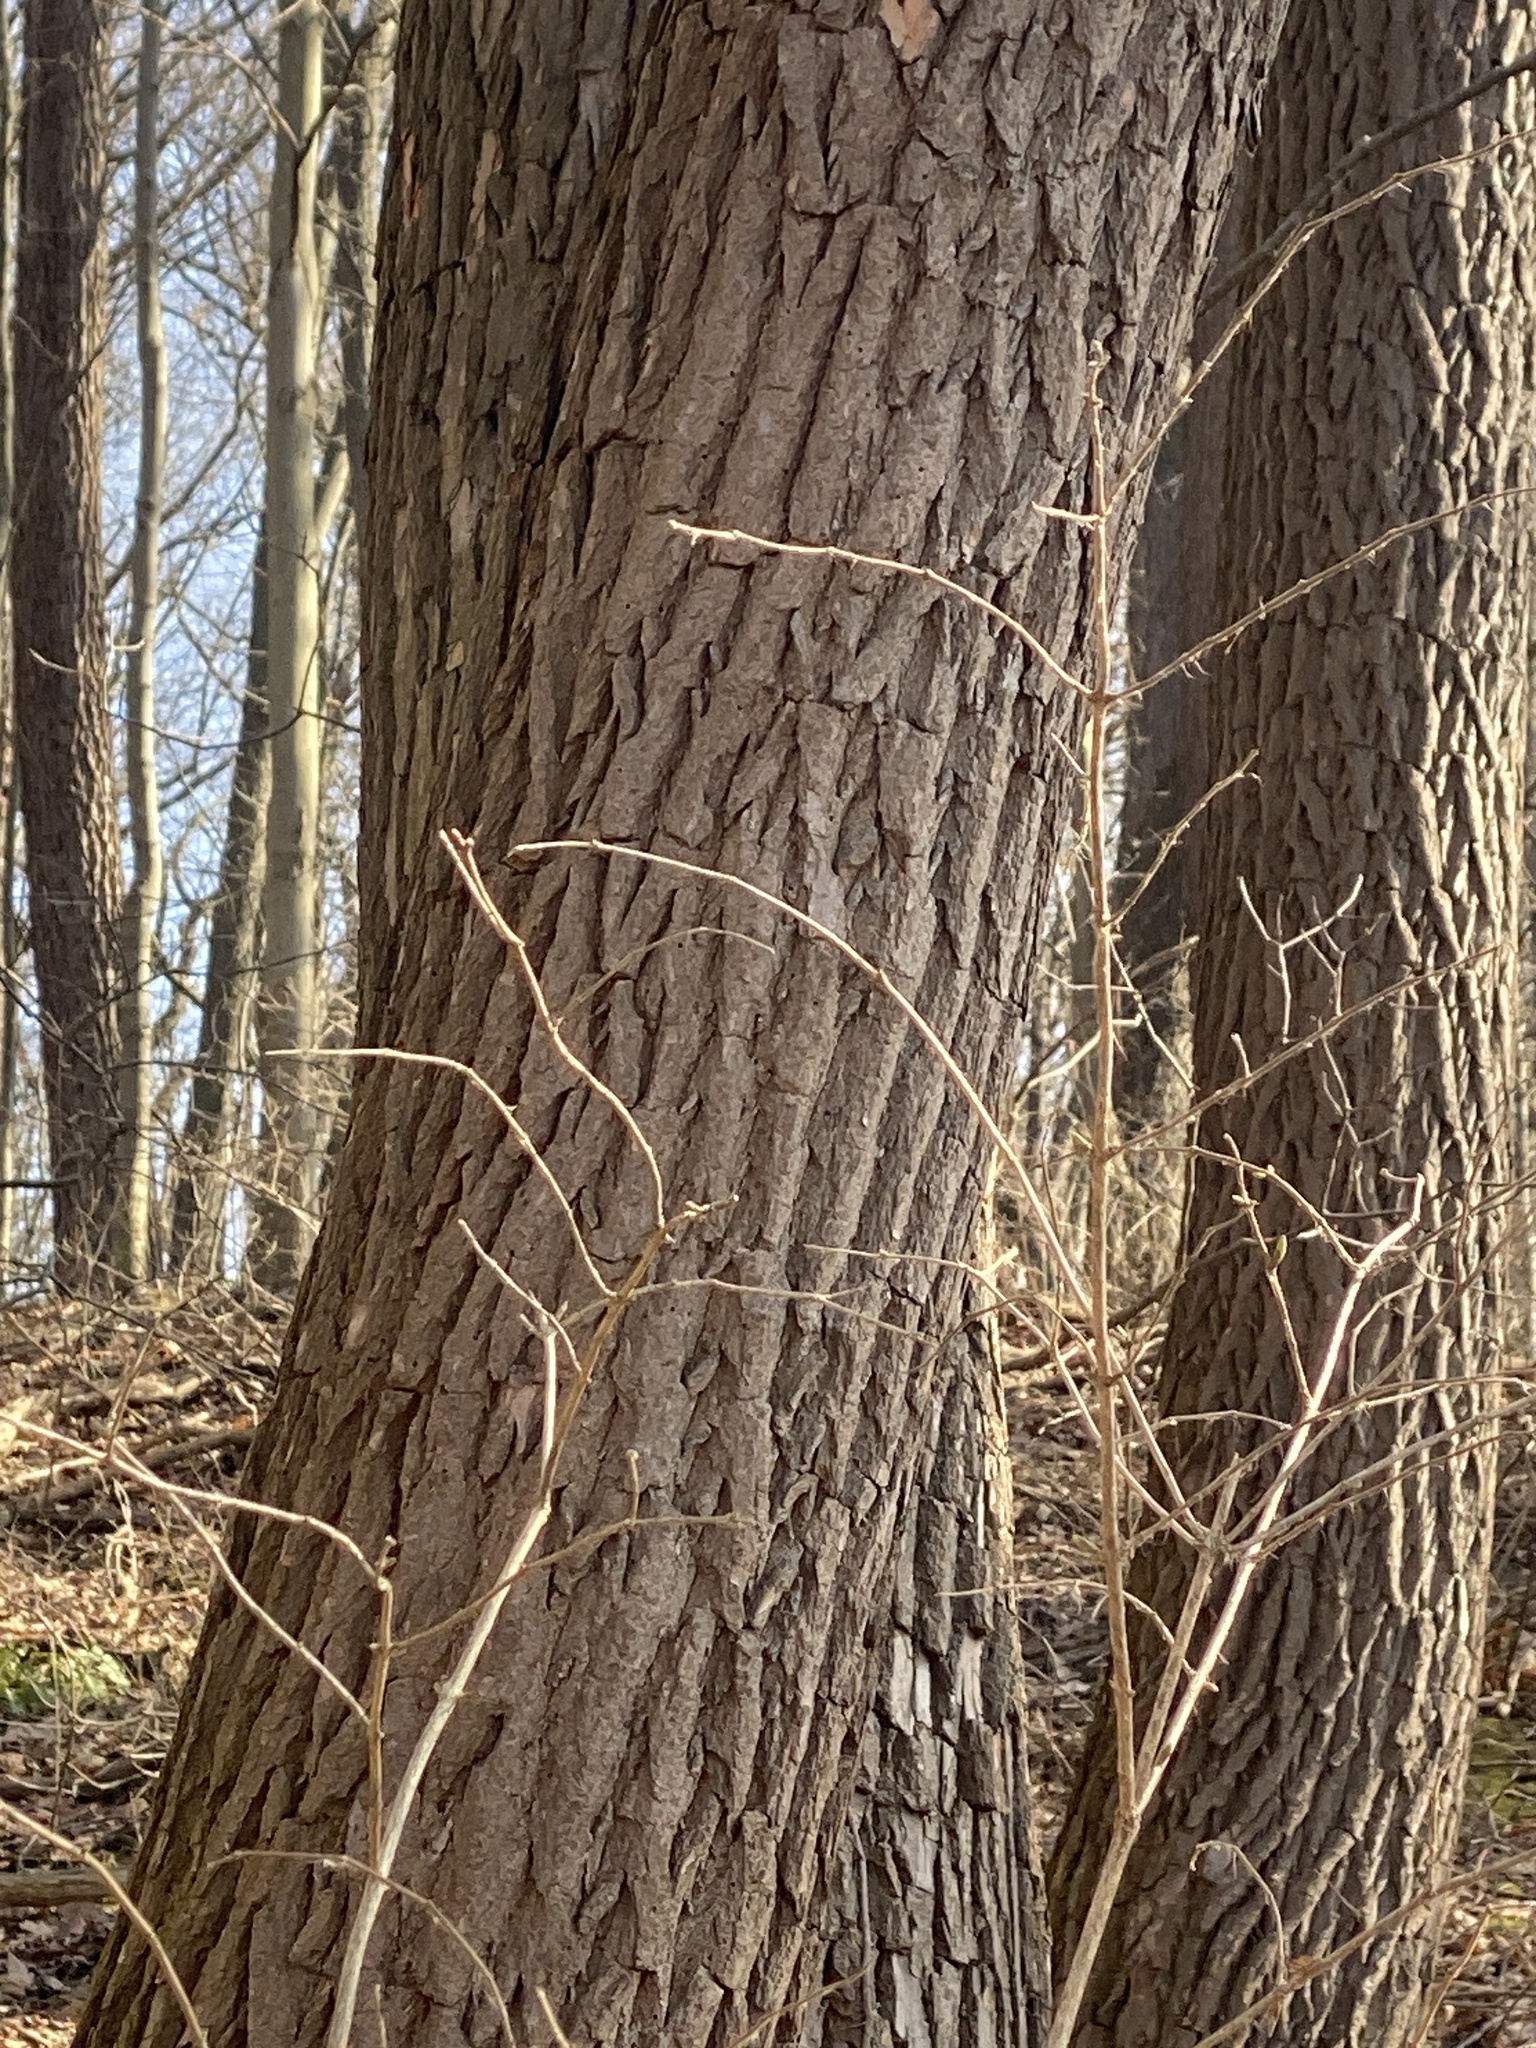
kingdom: Plantae
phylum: Tracheophyta
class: Magnoliopsida
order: Laurales
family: Lauraceae
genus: Sassafras
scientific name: Sassafras albidum
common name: Sassafras
